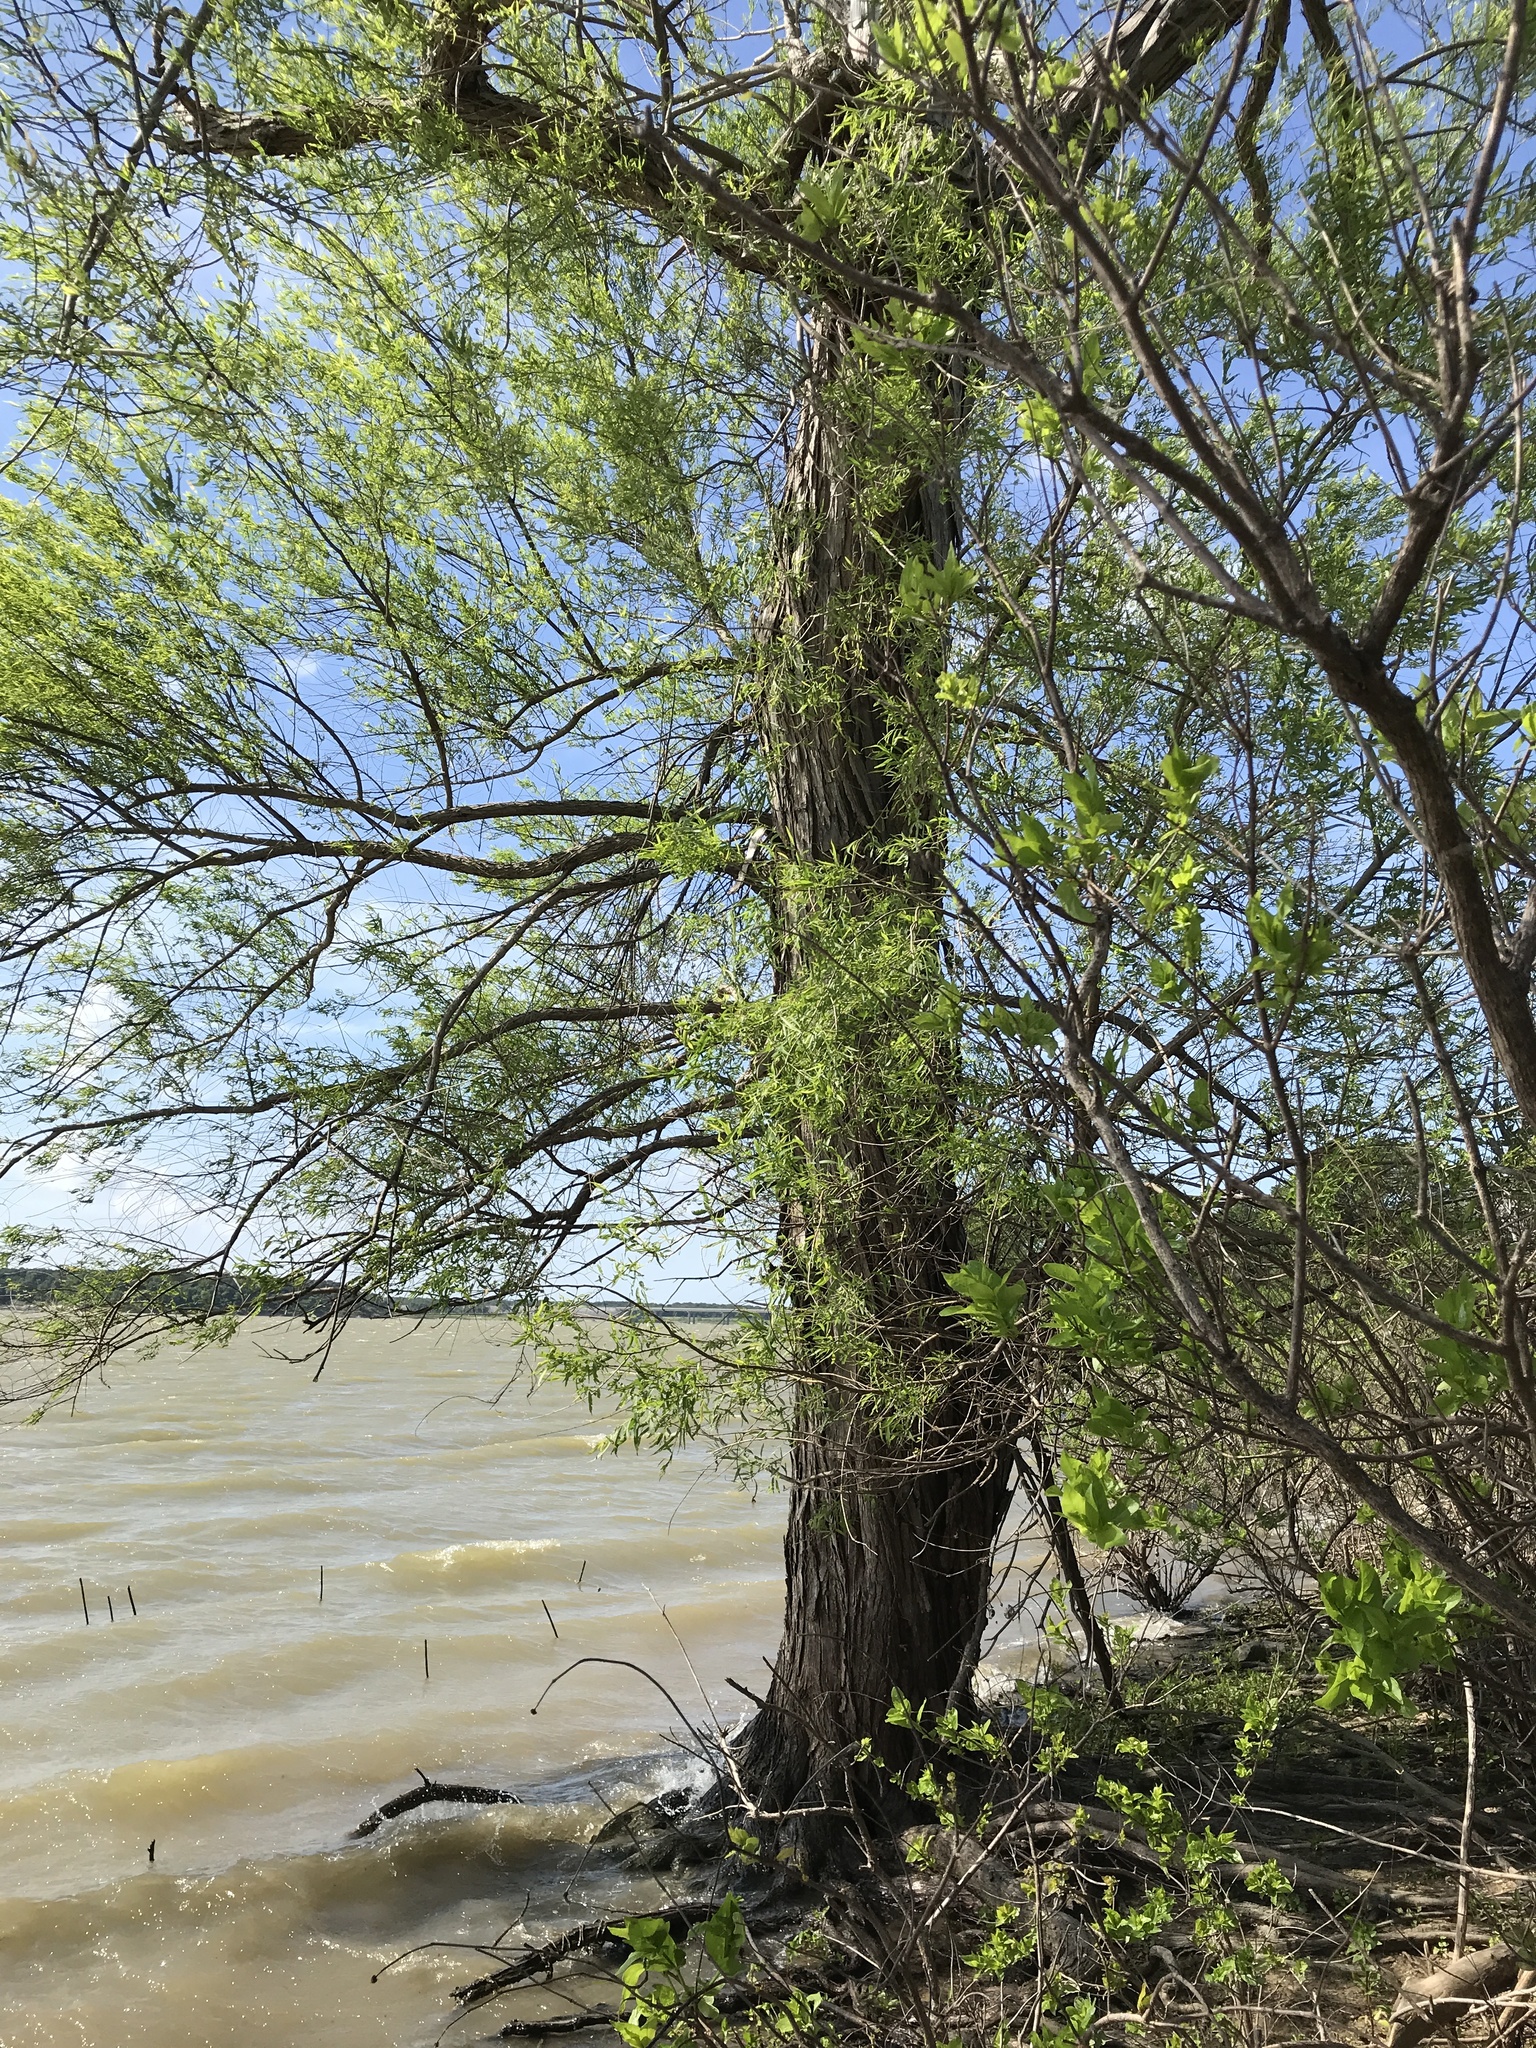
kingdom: Plantae
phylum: Tracheophyta
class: Magnoliopsida
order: Malpighiales
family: Salicaceae
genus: Salix
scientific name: Salix nigra
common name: Black willow
